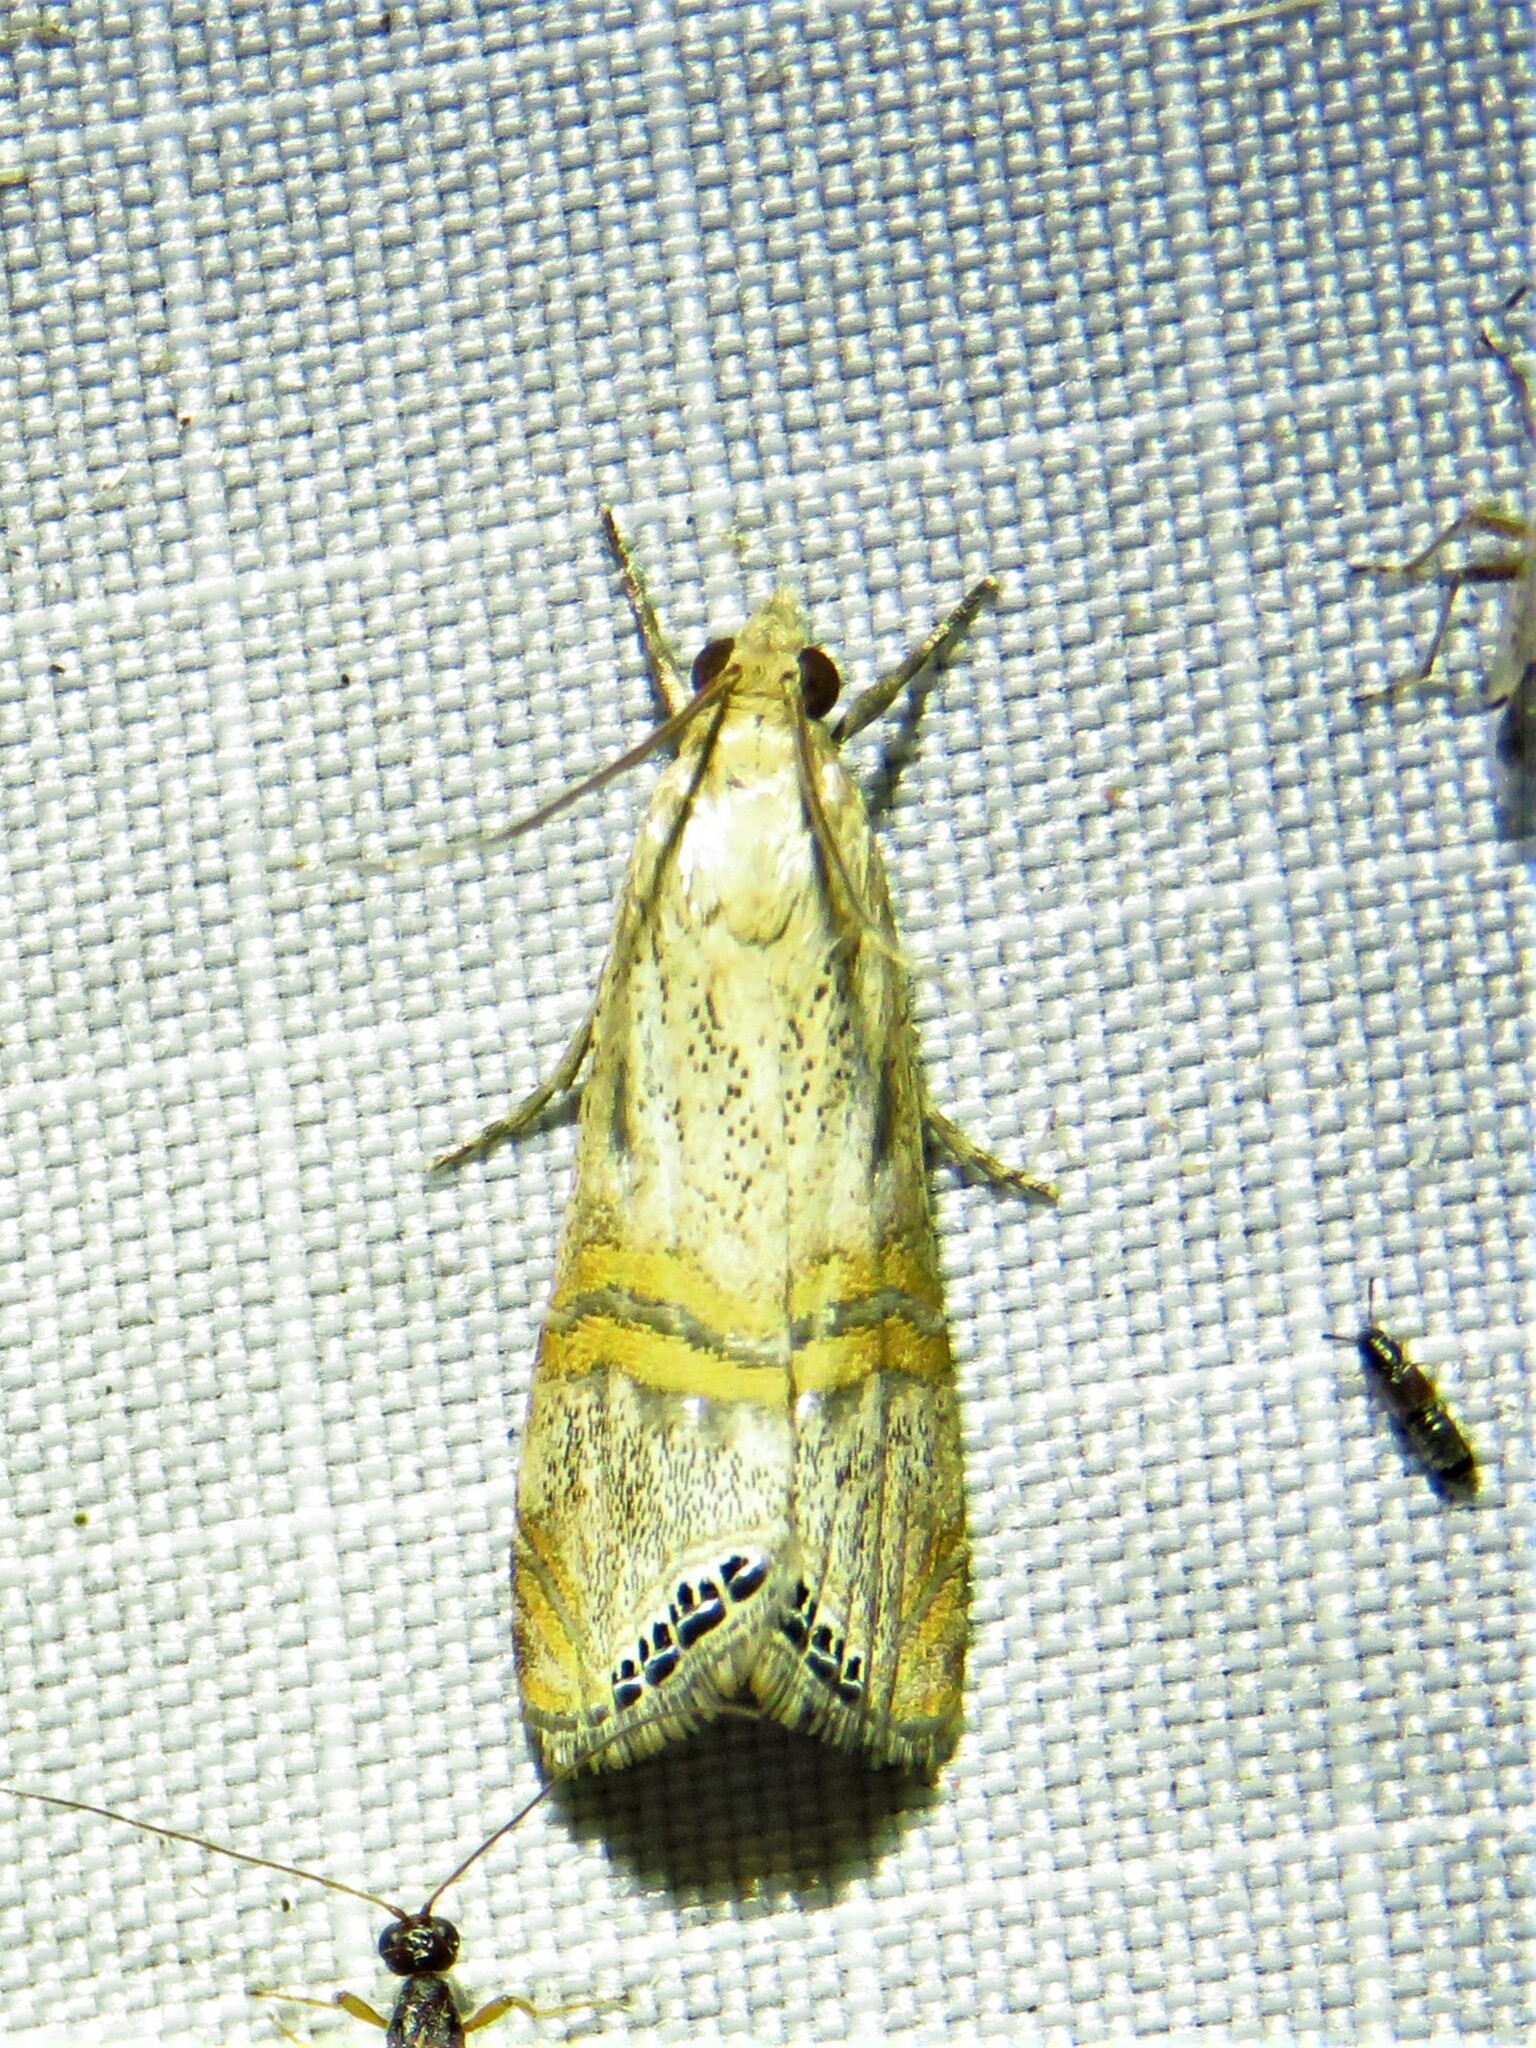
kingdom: Animalia
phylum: Arthropoda
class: Insecta
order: Lepidoptera
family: Crambidae
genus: Euchromius
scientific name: Euchromius ocellea
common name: Necklace veneer moth
